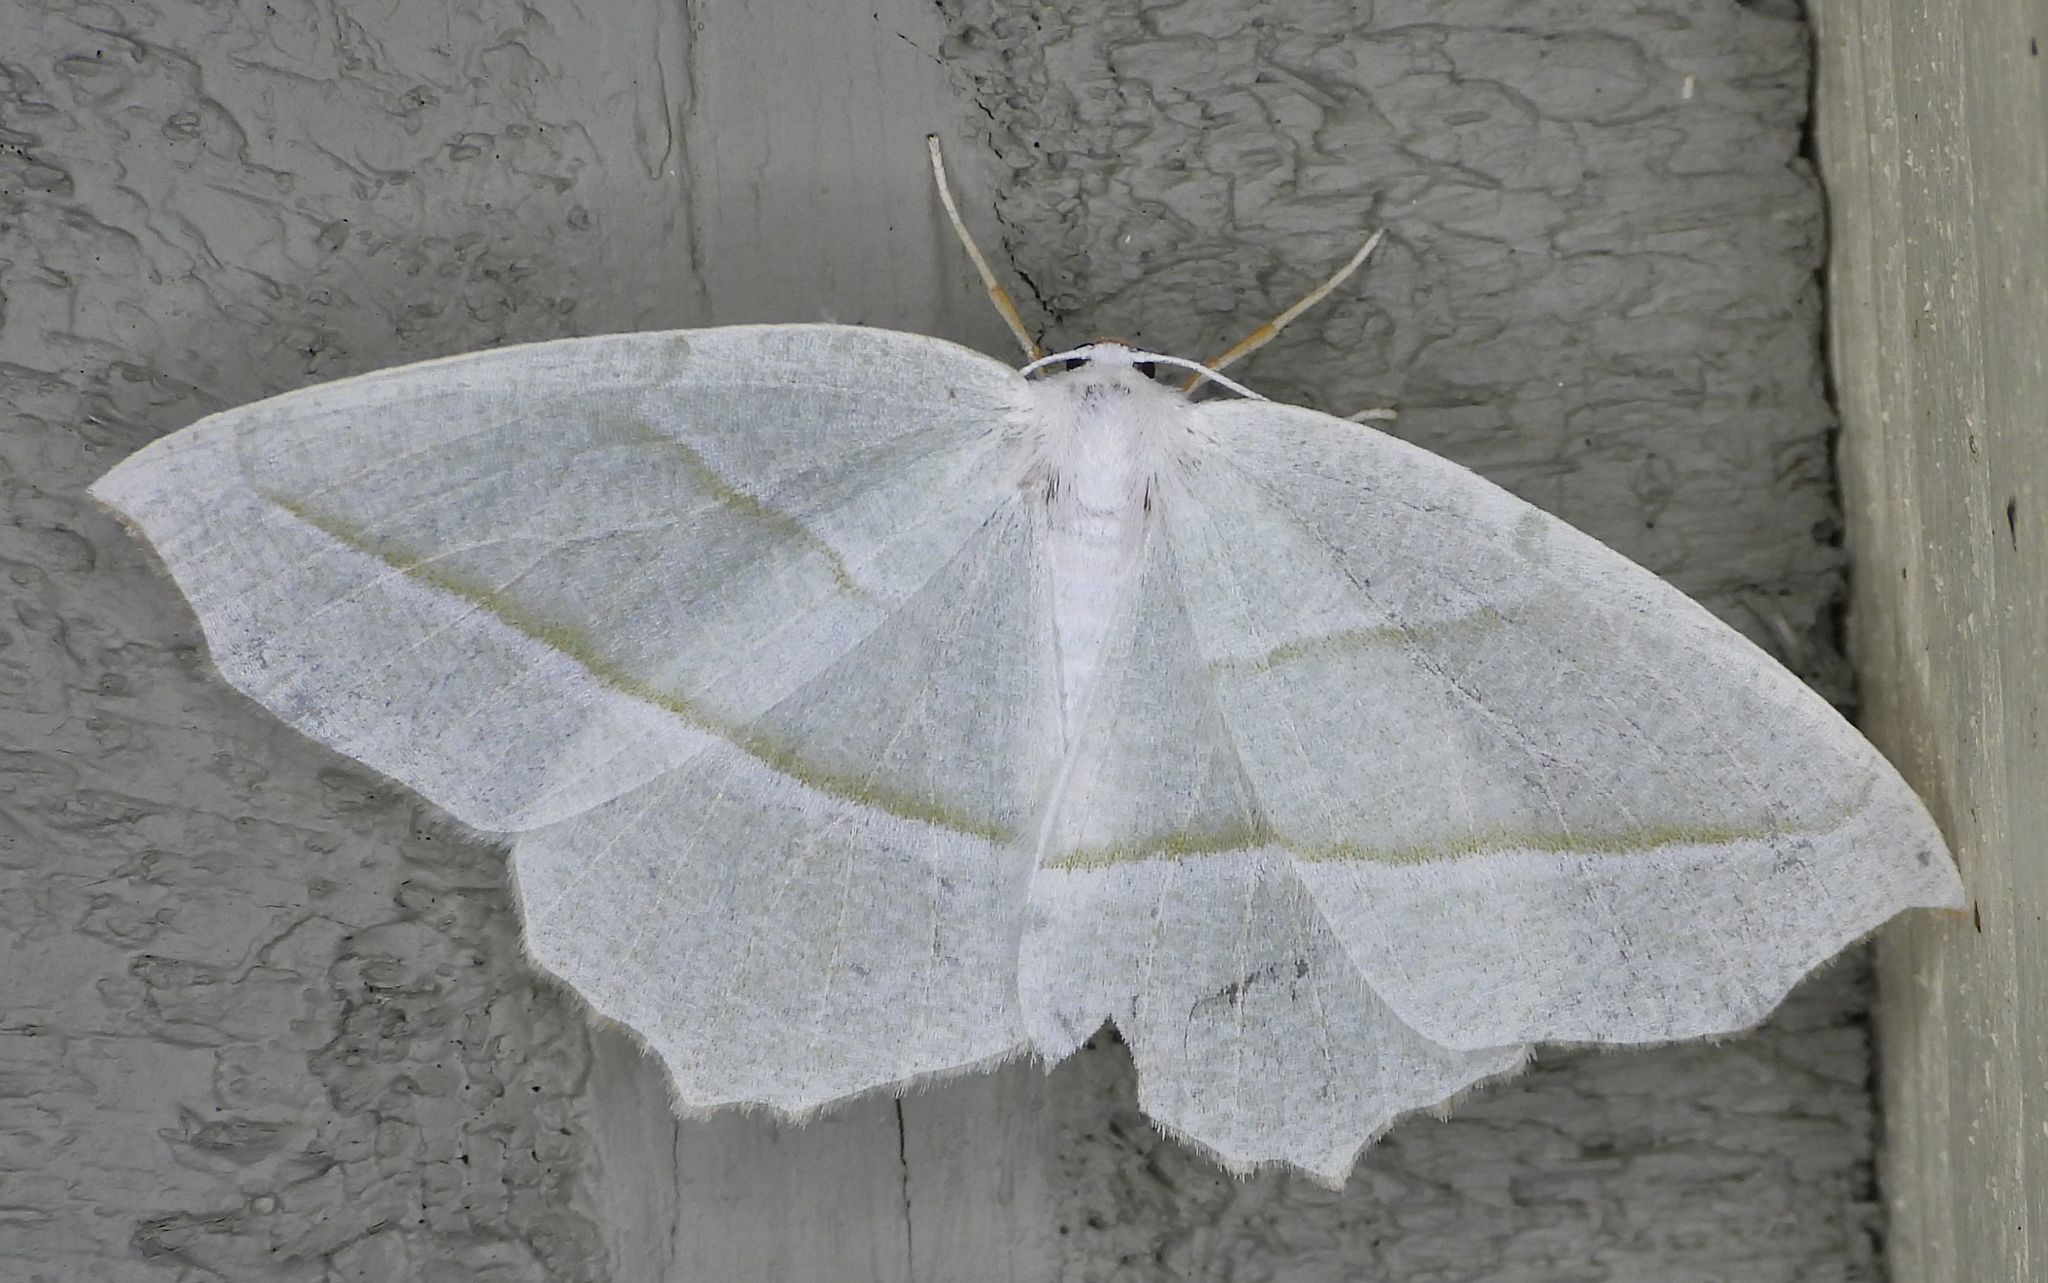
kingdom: Animalia
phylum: Arthropoda
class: Insecta
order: Lepidoptera
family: Geometridae
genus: Campaea
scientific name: Campaea perlata
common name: Fringed looper
